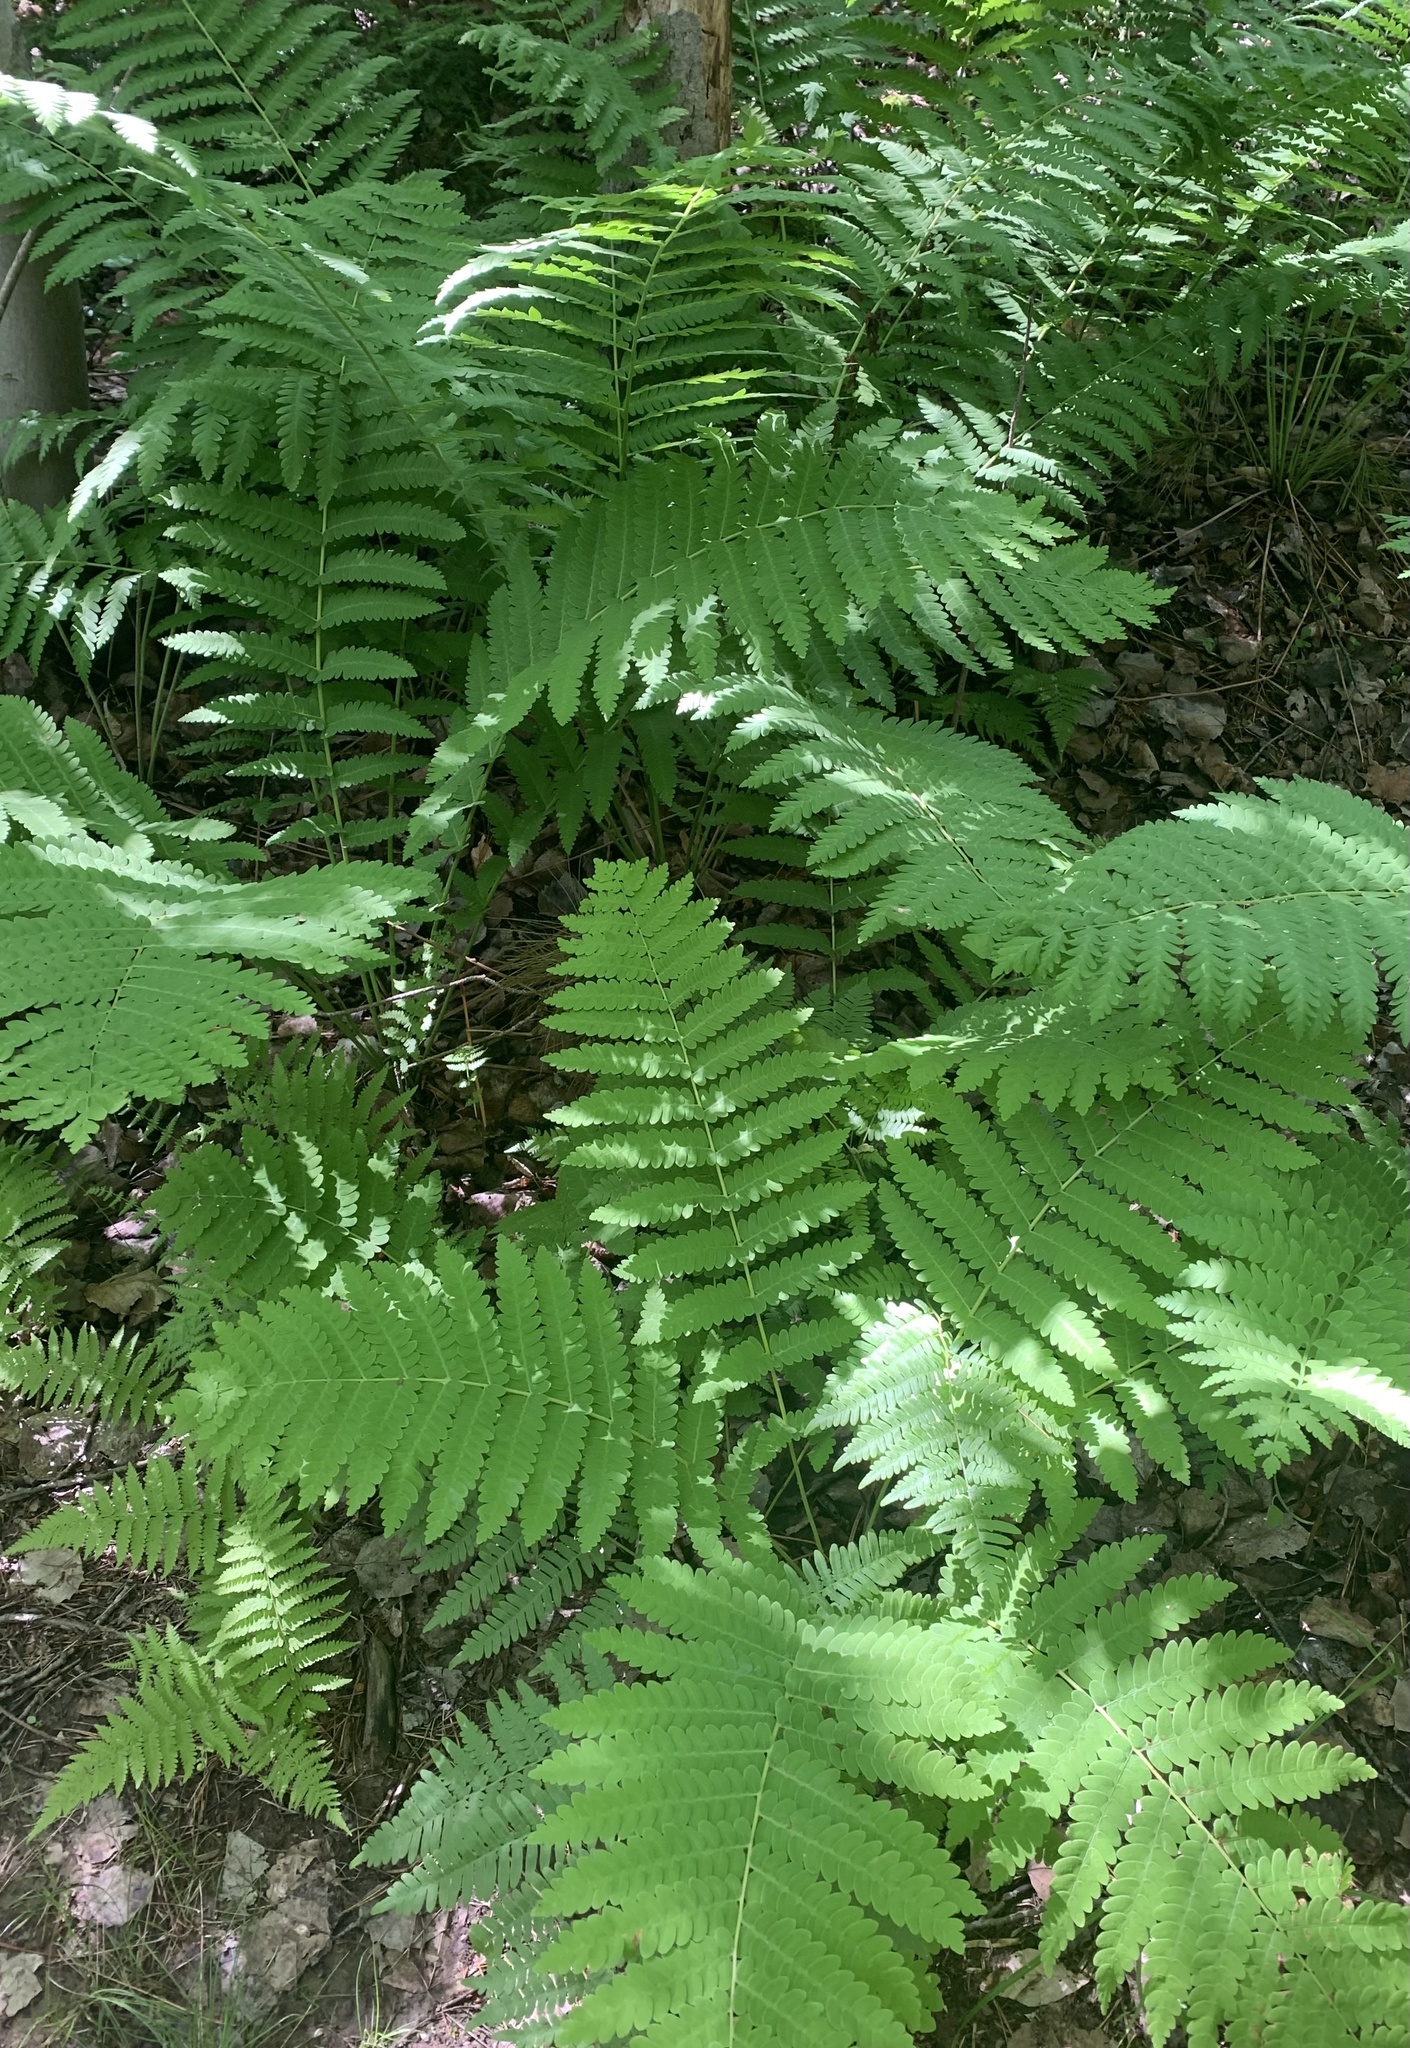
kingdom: Plantae
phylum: Tracheophyta
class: Polypodiopsida
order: Osmundales
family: Osmundaceae
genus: Claytosmunda
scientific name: Claytosmunda claytoniana
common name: Clayton's fern
